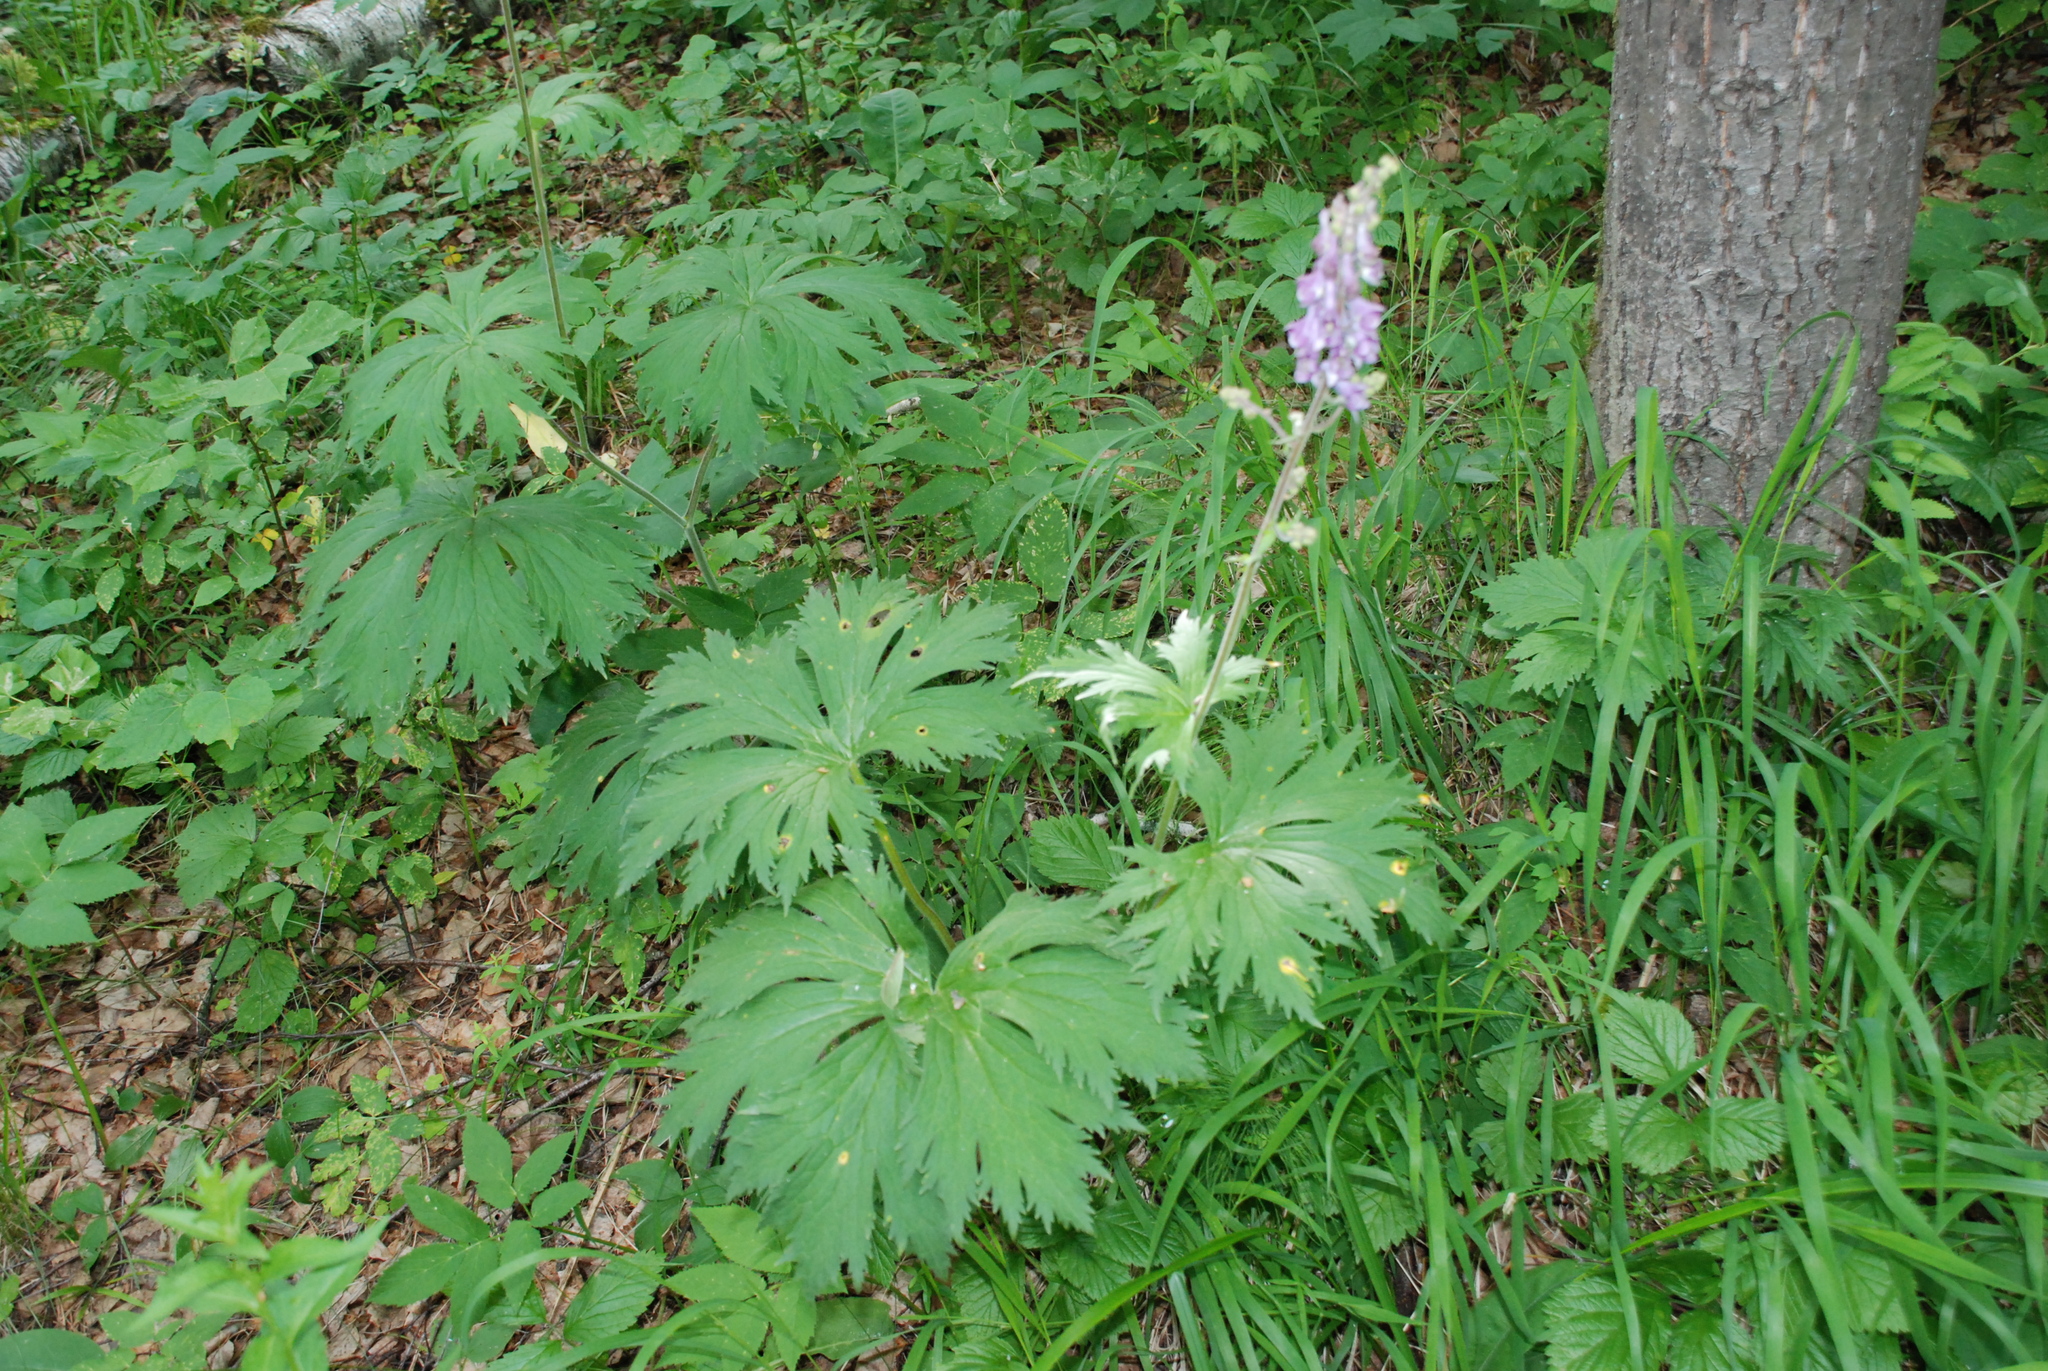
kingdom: Plantae
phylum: Tracheophyta
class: Magnoliopsida
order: Ranunculales
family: Ranunculaceae
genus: Aconitum
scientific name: Aconitum septentrionale
